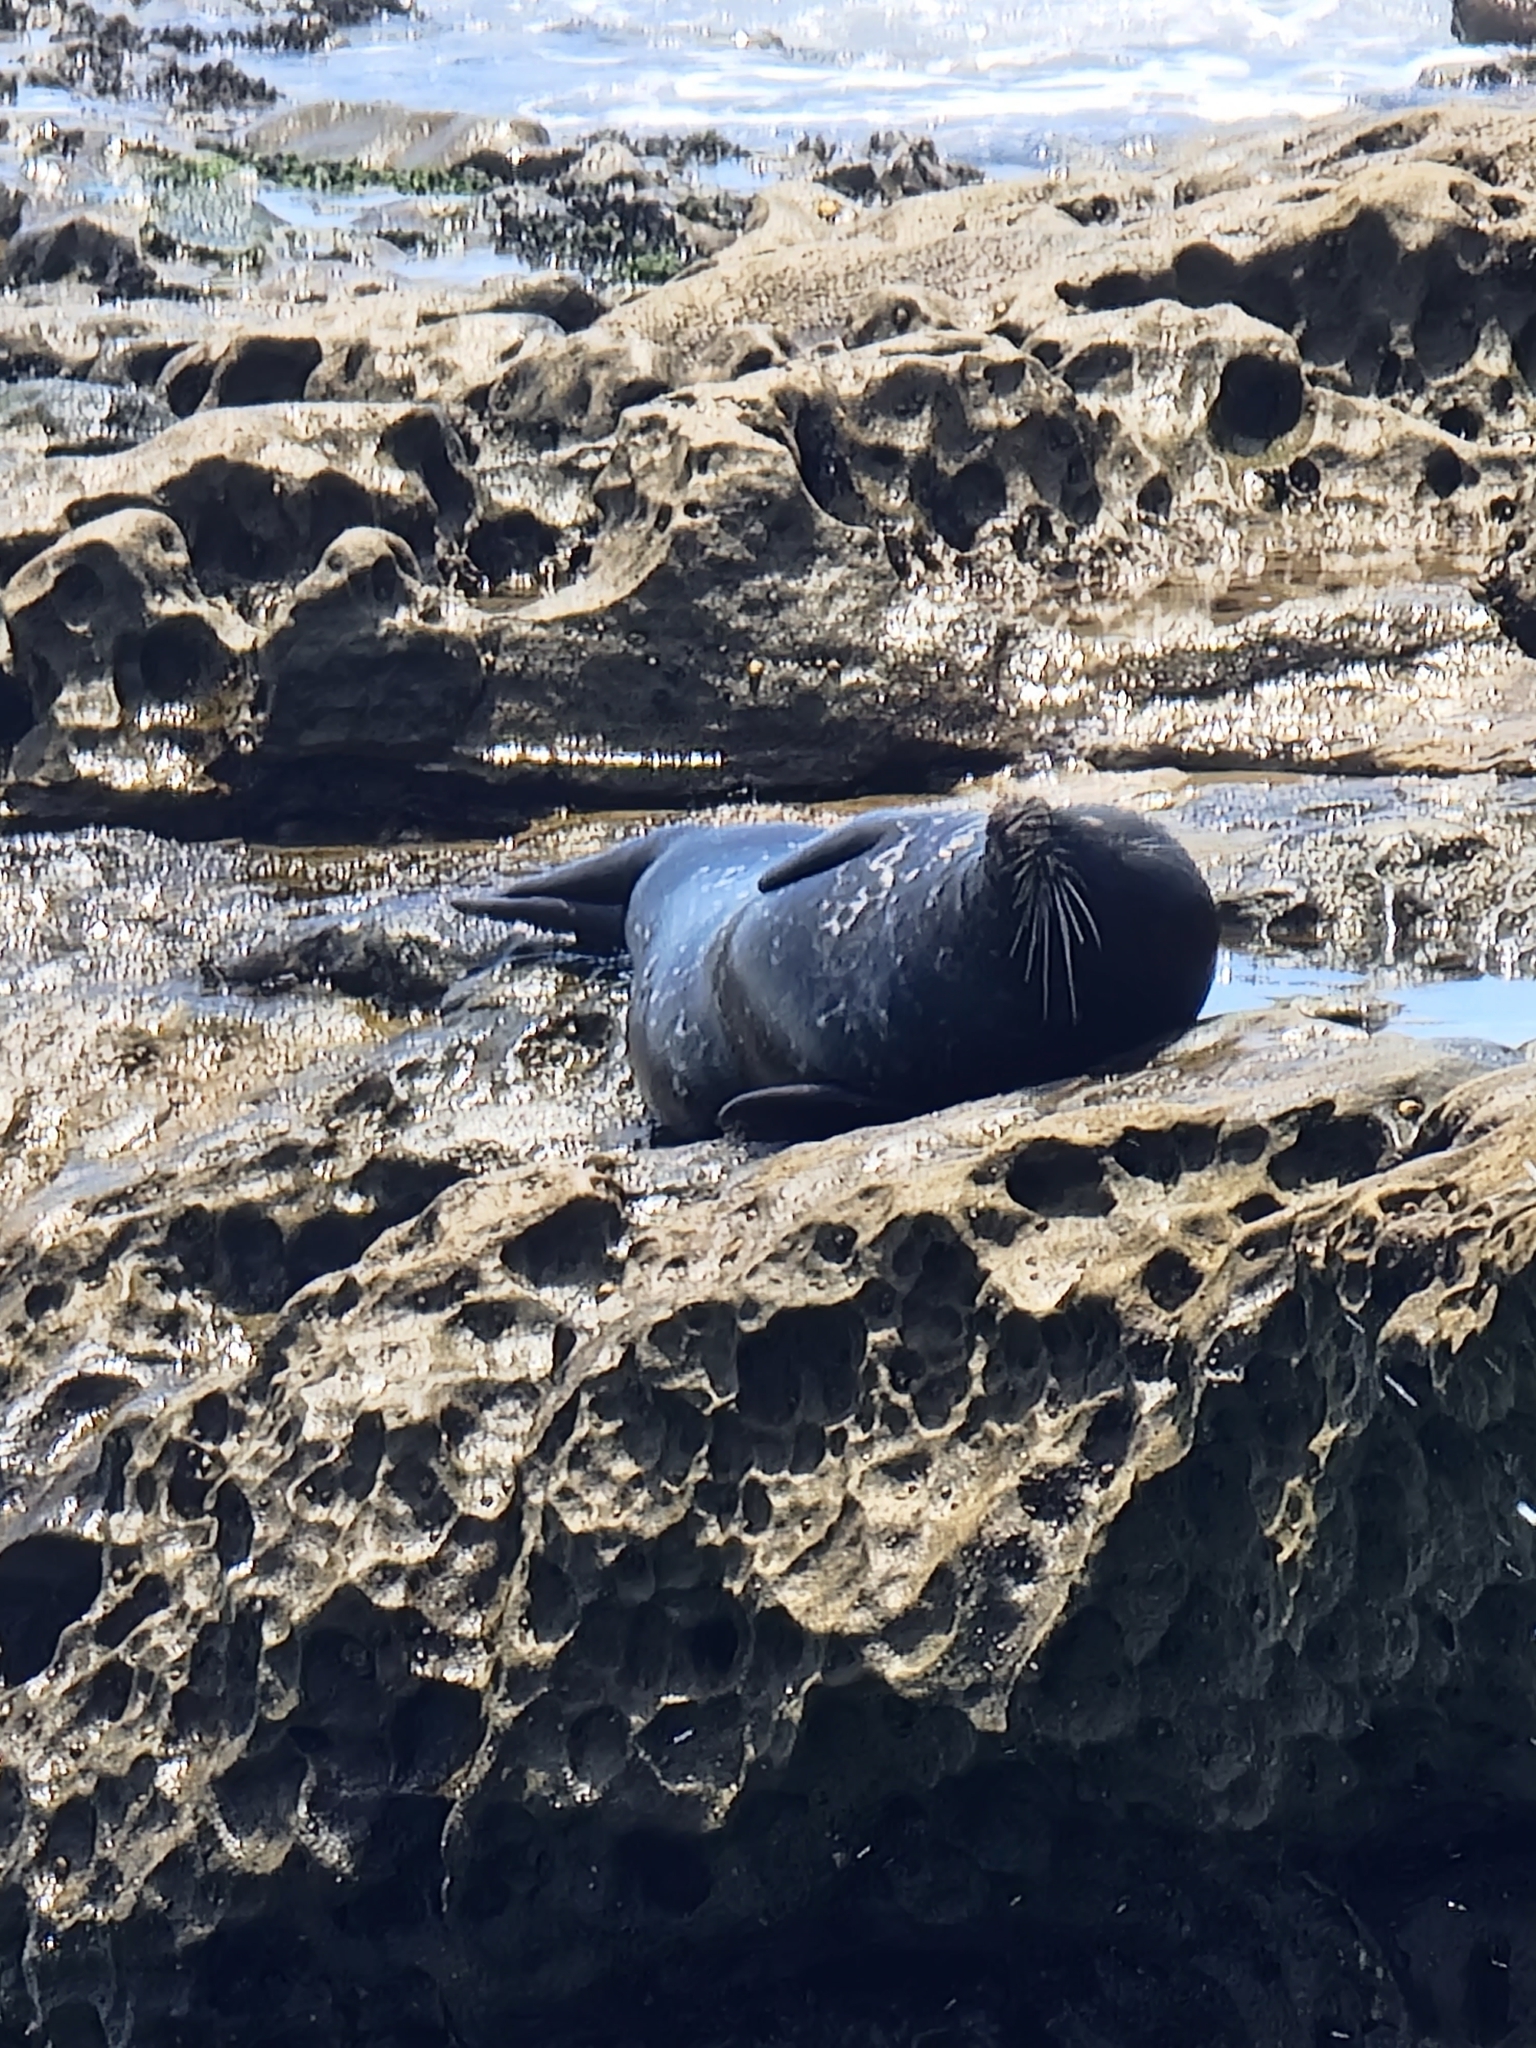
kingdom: Animalia
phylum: Chordata
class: Mammalia
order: Carnivora
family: Phocidae
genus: Phoca
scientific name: Phoca vitulina
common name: Harbor seal
